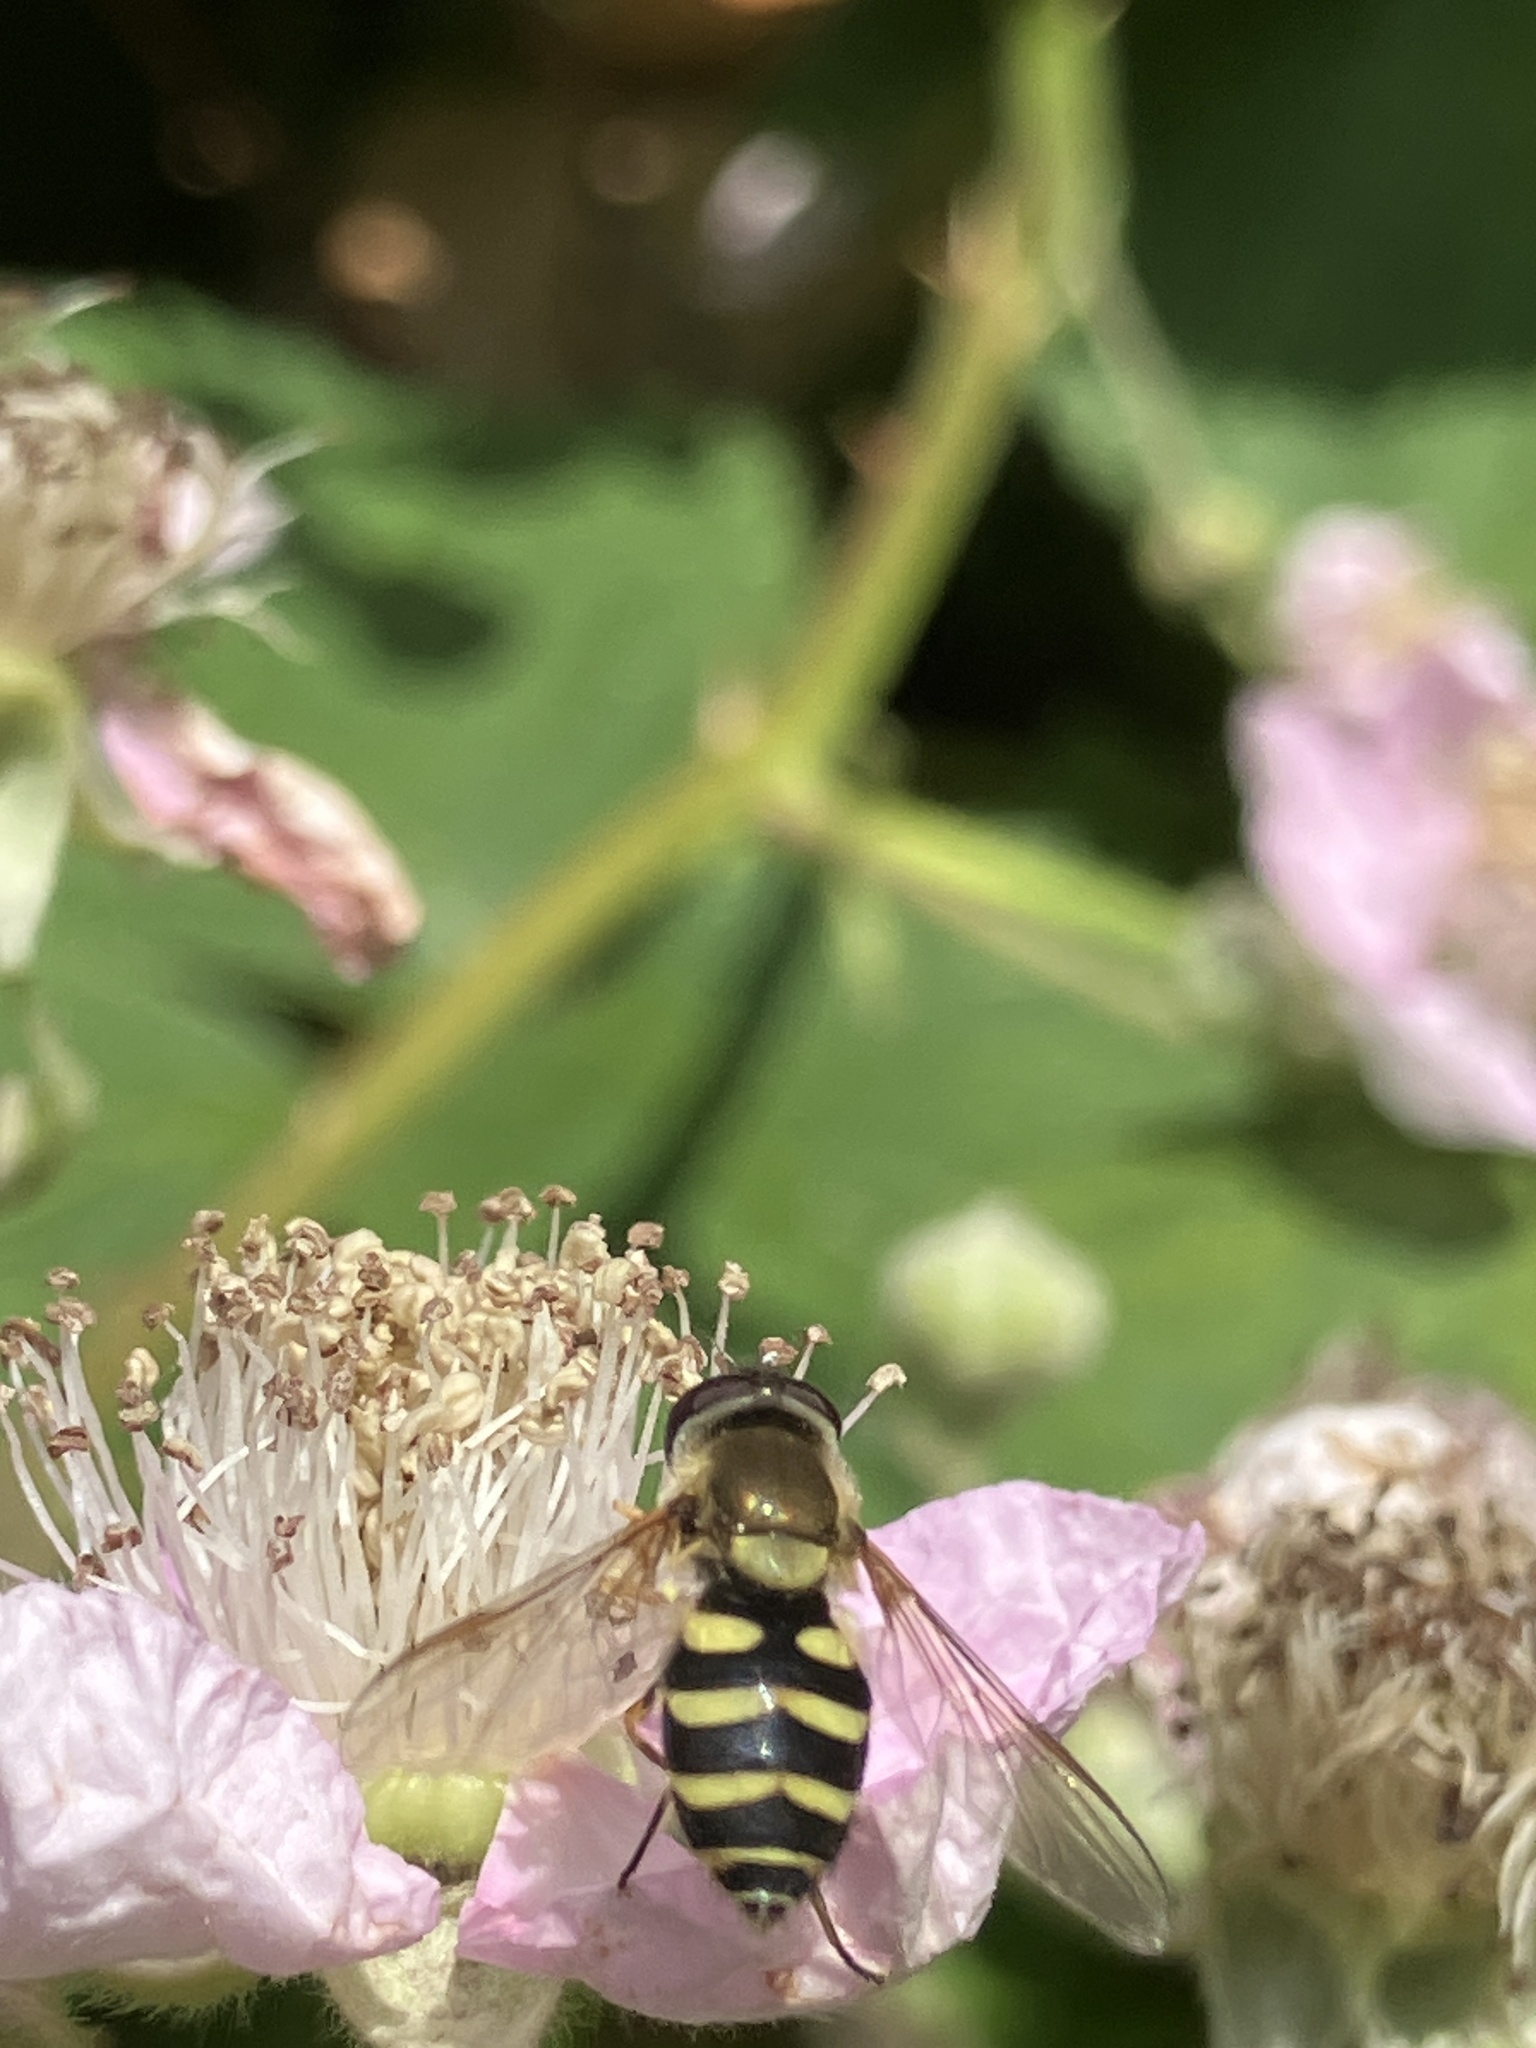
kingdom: Animalia
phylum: Arthropoda
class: Insecta
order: Diptera
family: Syrphidae
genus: Syrphus
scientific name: Syrphus
